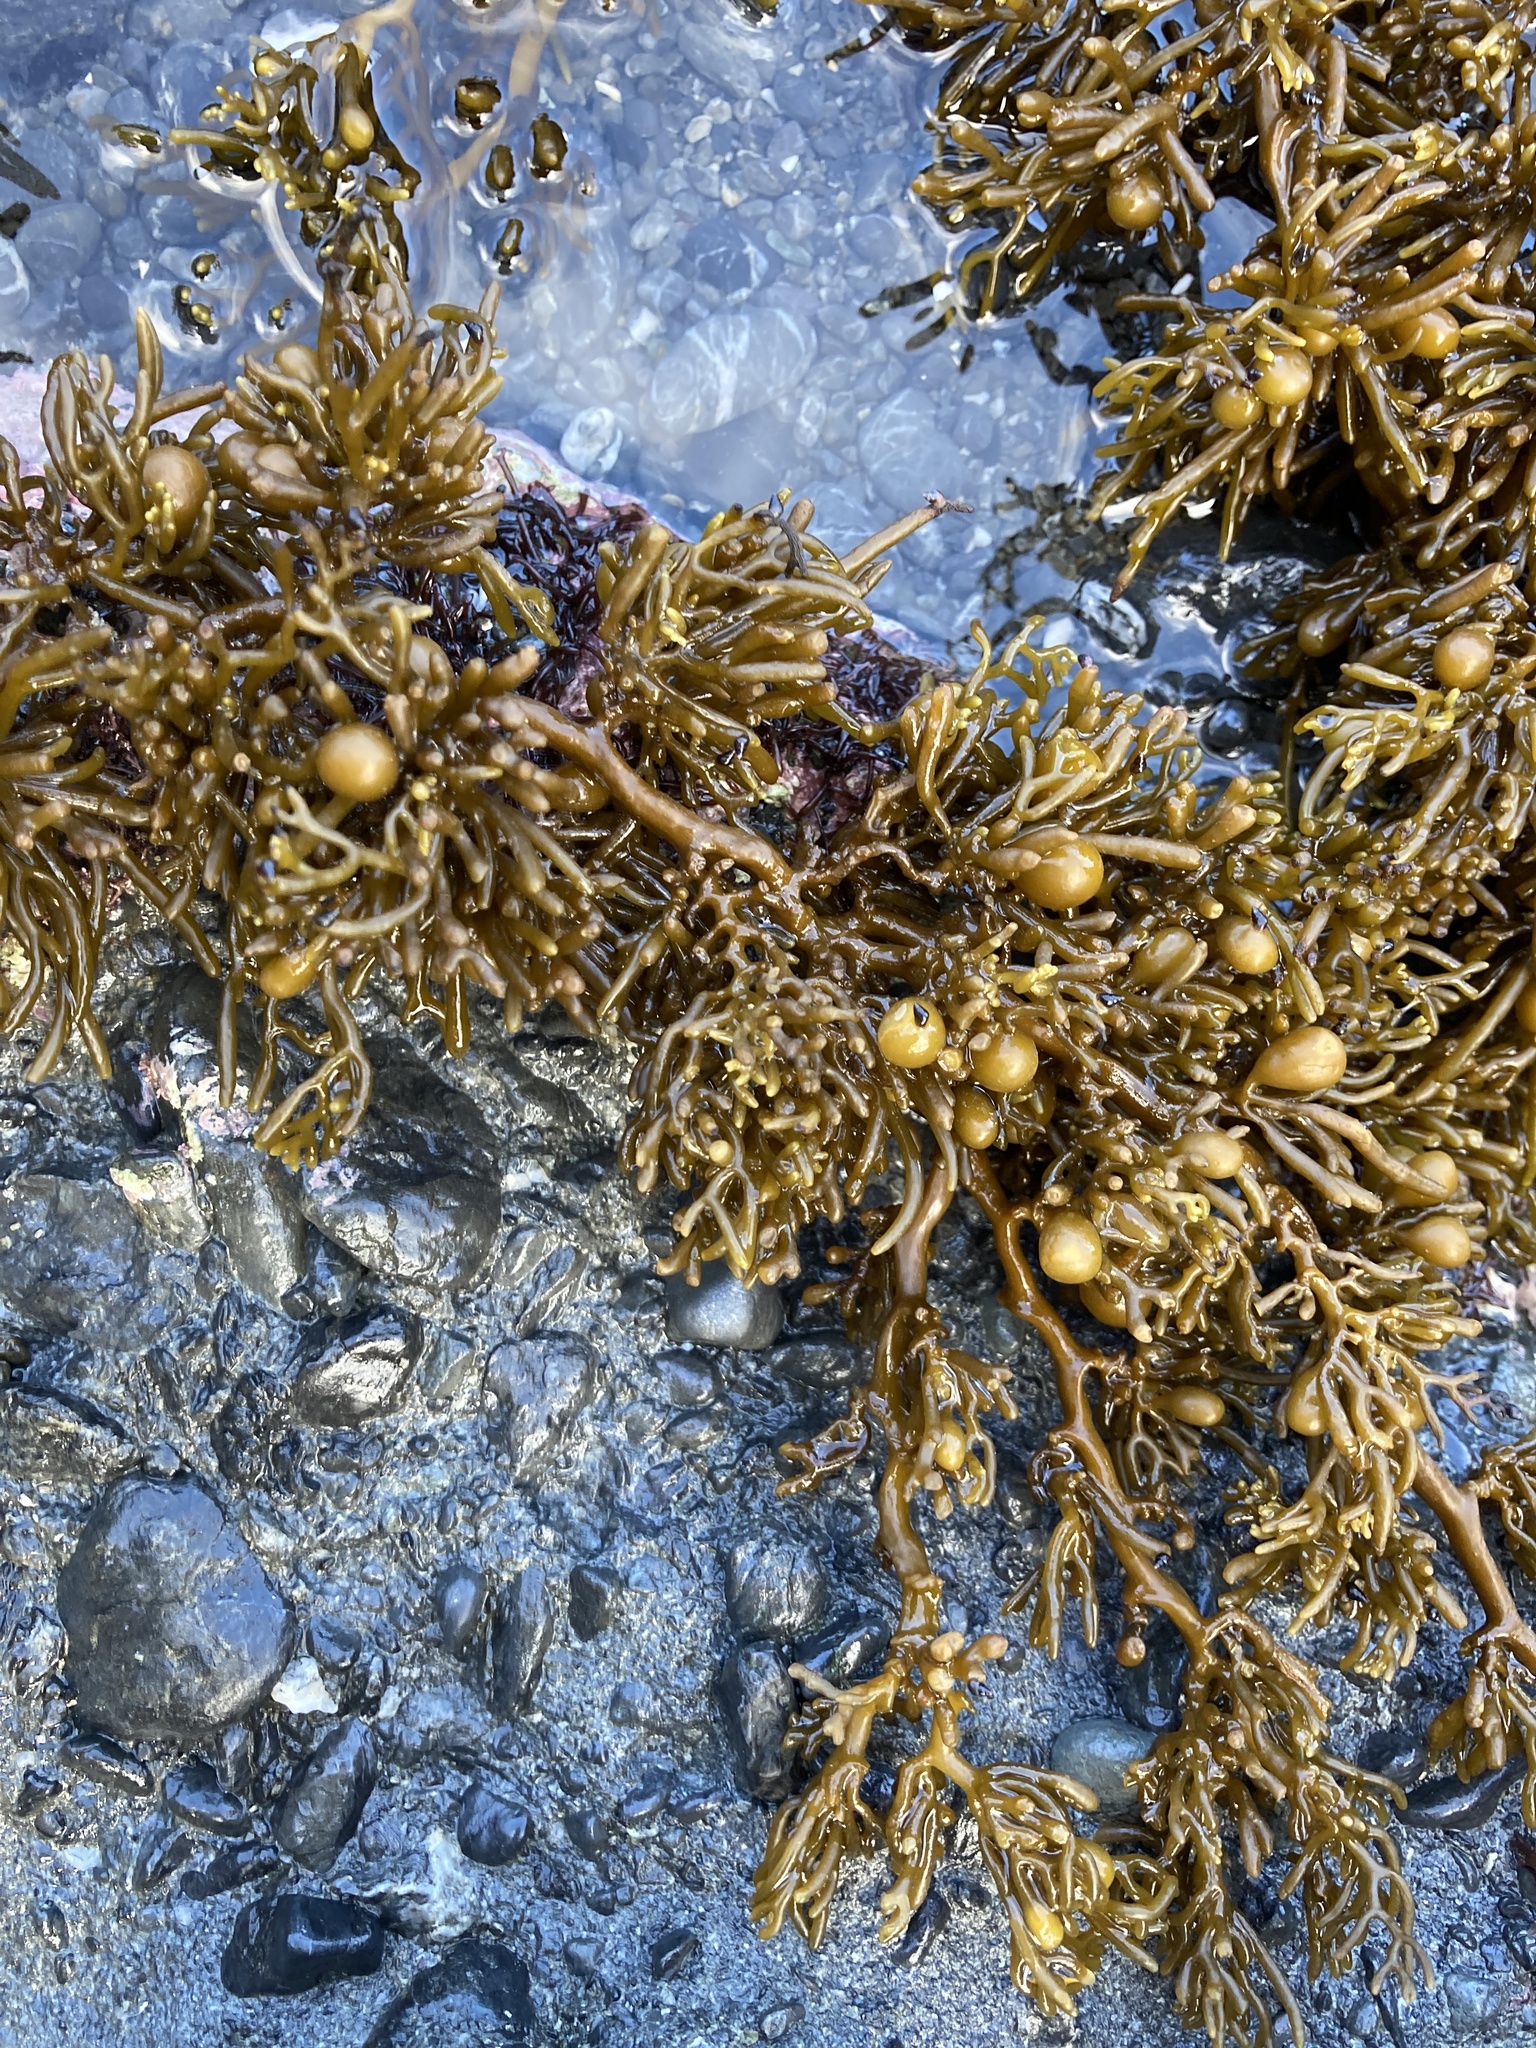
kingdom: Chromista
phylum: Ochrophyta
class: Phaeophyceae
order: Fucales
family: Sargassaceae
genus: Cystophora
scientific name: Cystophora torulosa
